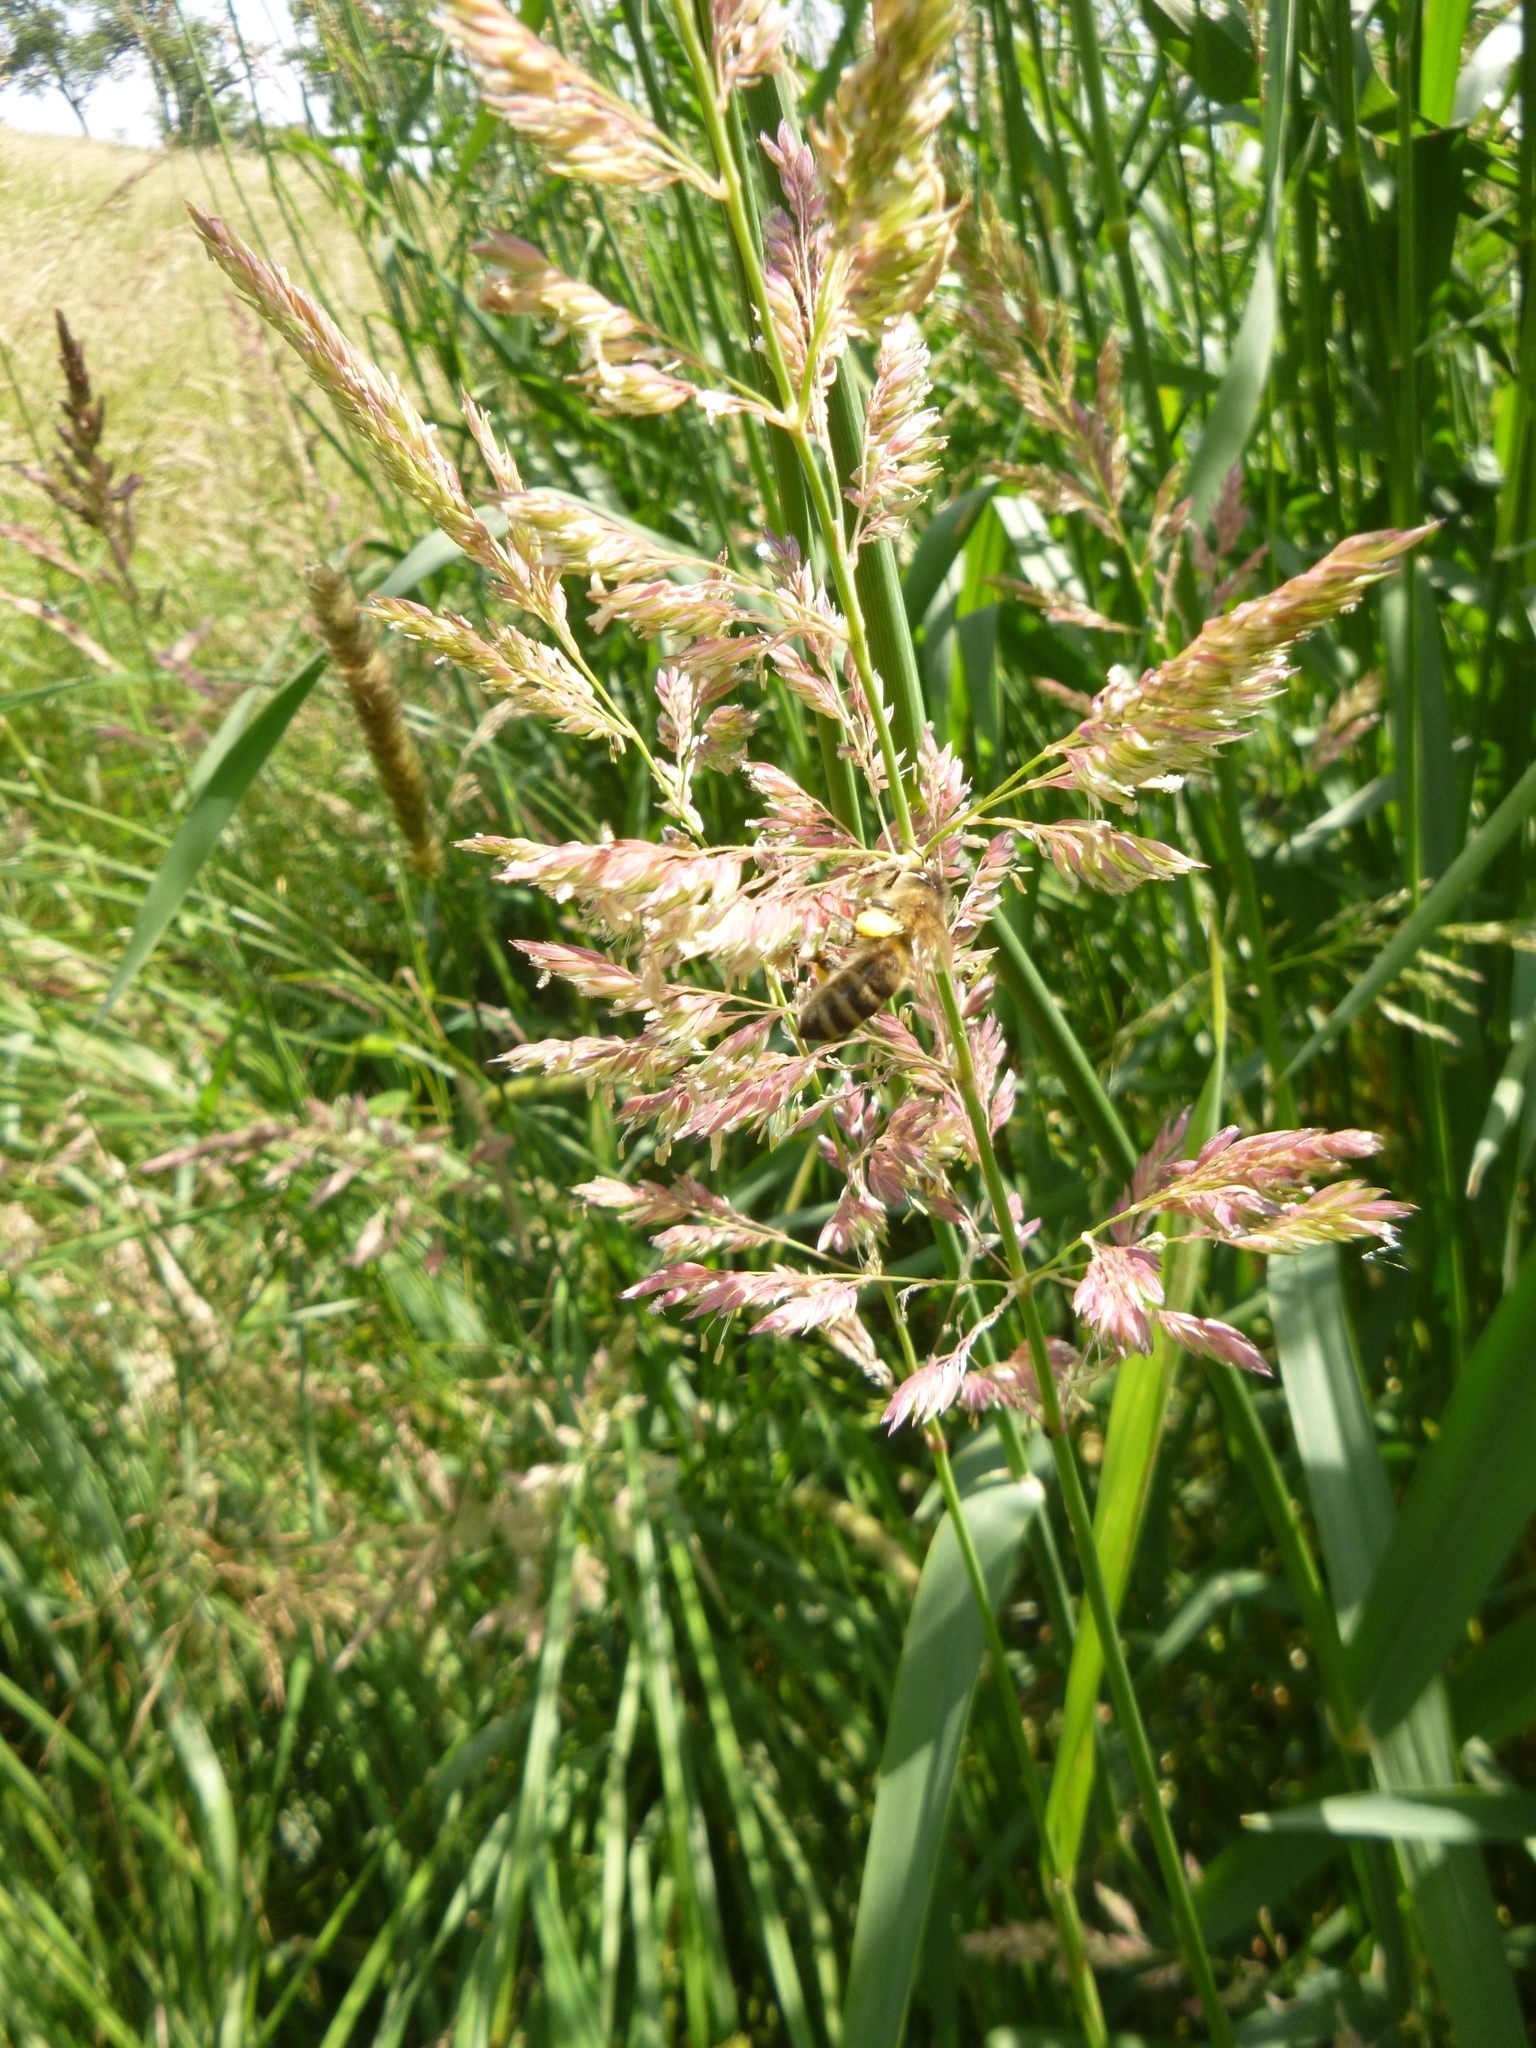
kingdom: Animalia
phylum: Arthropoda
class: Insecta
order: Hymenoptera
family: Apidae
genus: Apis
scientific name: Apis mellifera
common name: Honey bee
